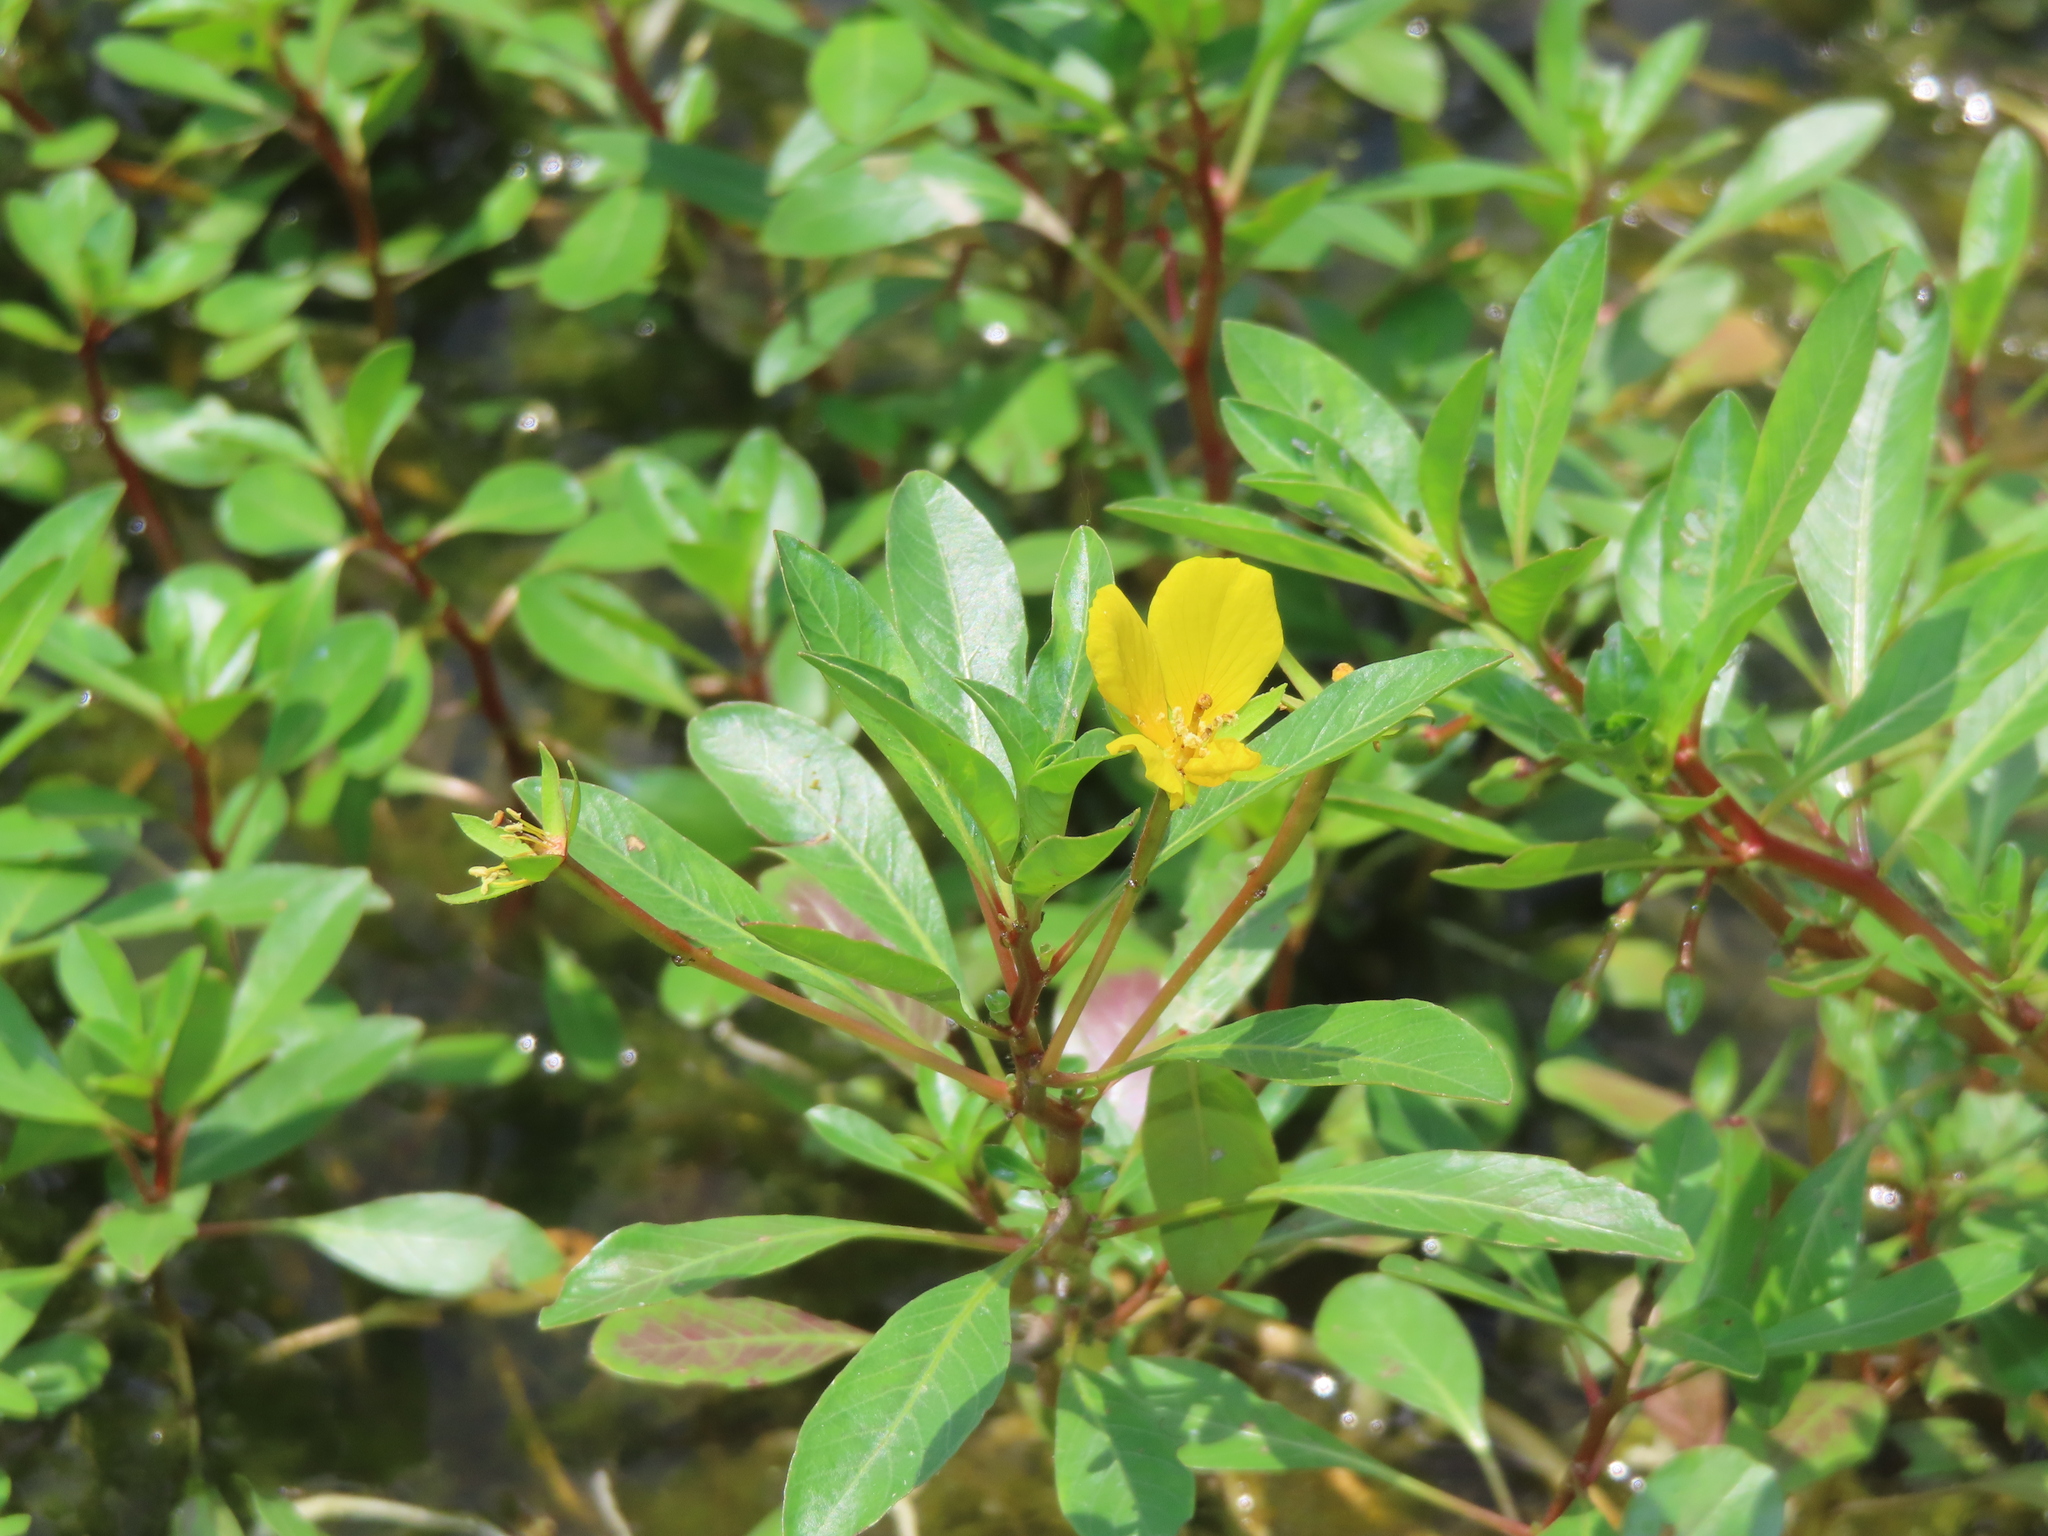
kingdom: Plantae
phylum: Tracheophyta
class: Magnoliopsida
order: Myrtales
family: Onagraceae
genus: Ludwigia
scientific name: Ludwigia peploides
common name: Floating primrose-willow
